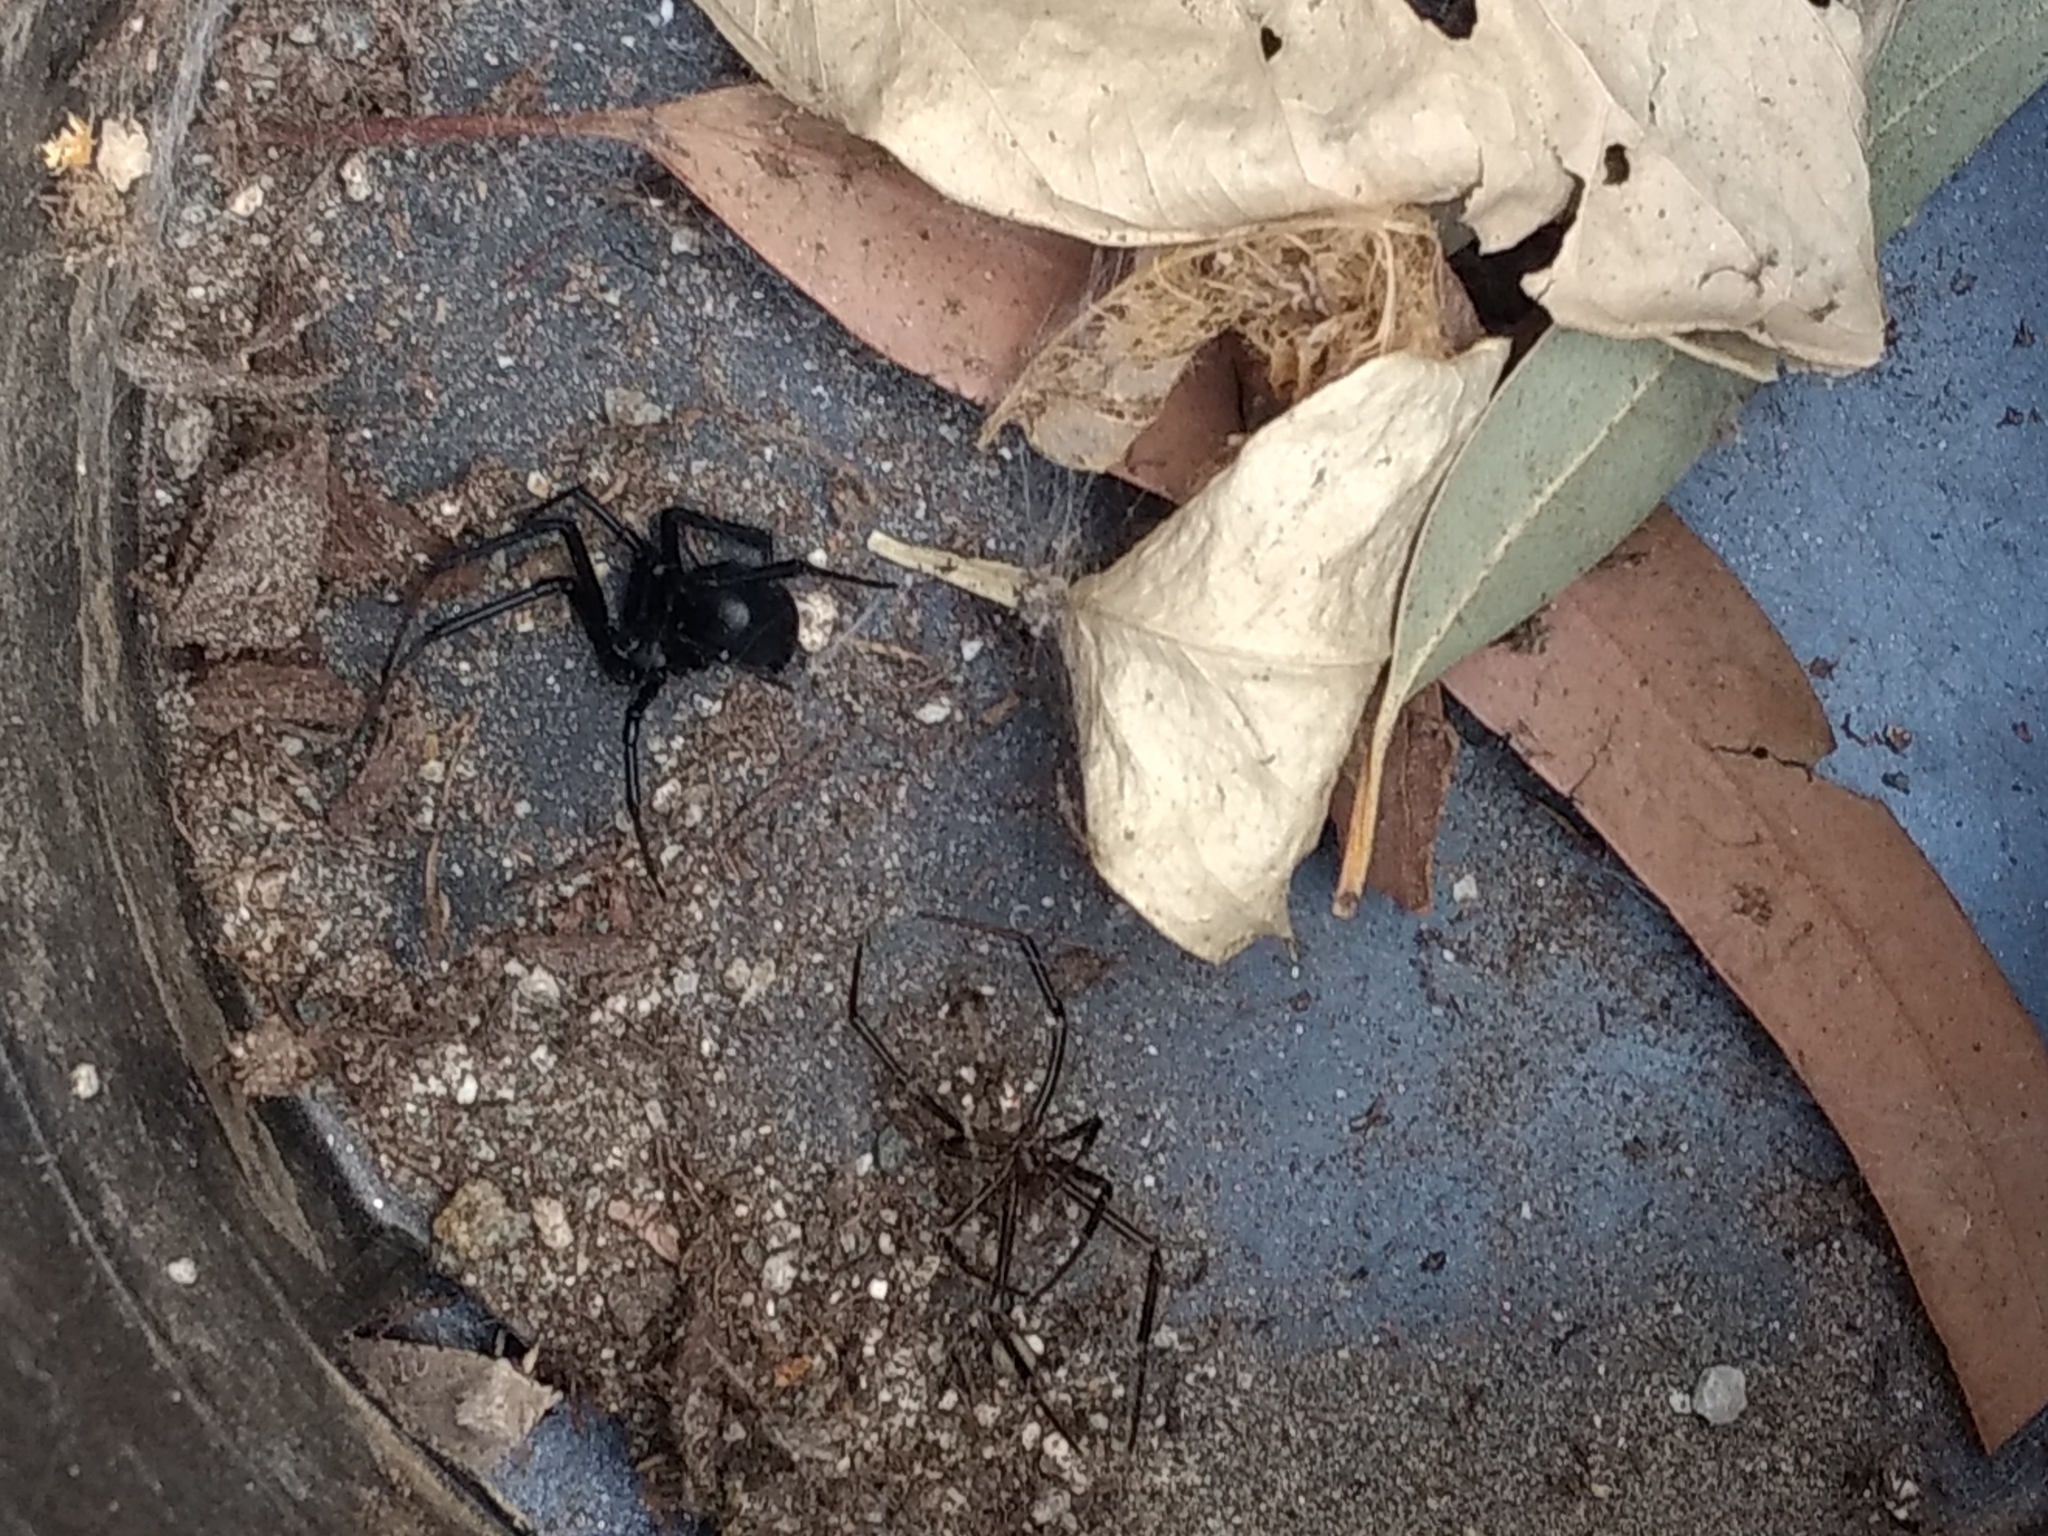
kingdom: Animalia
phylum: Arthropoda
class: Arachnida
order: Araneae
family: Theridiidae
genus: Latrodectus
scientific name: Latrodectus hesperus
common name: Western black widow
